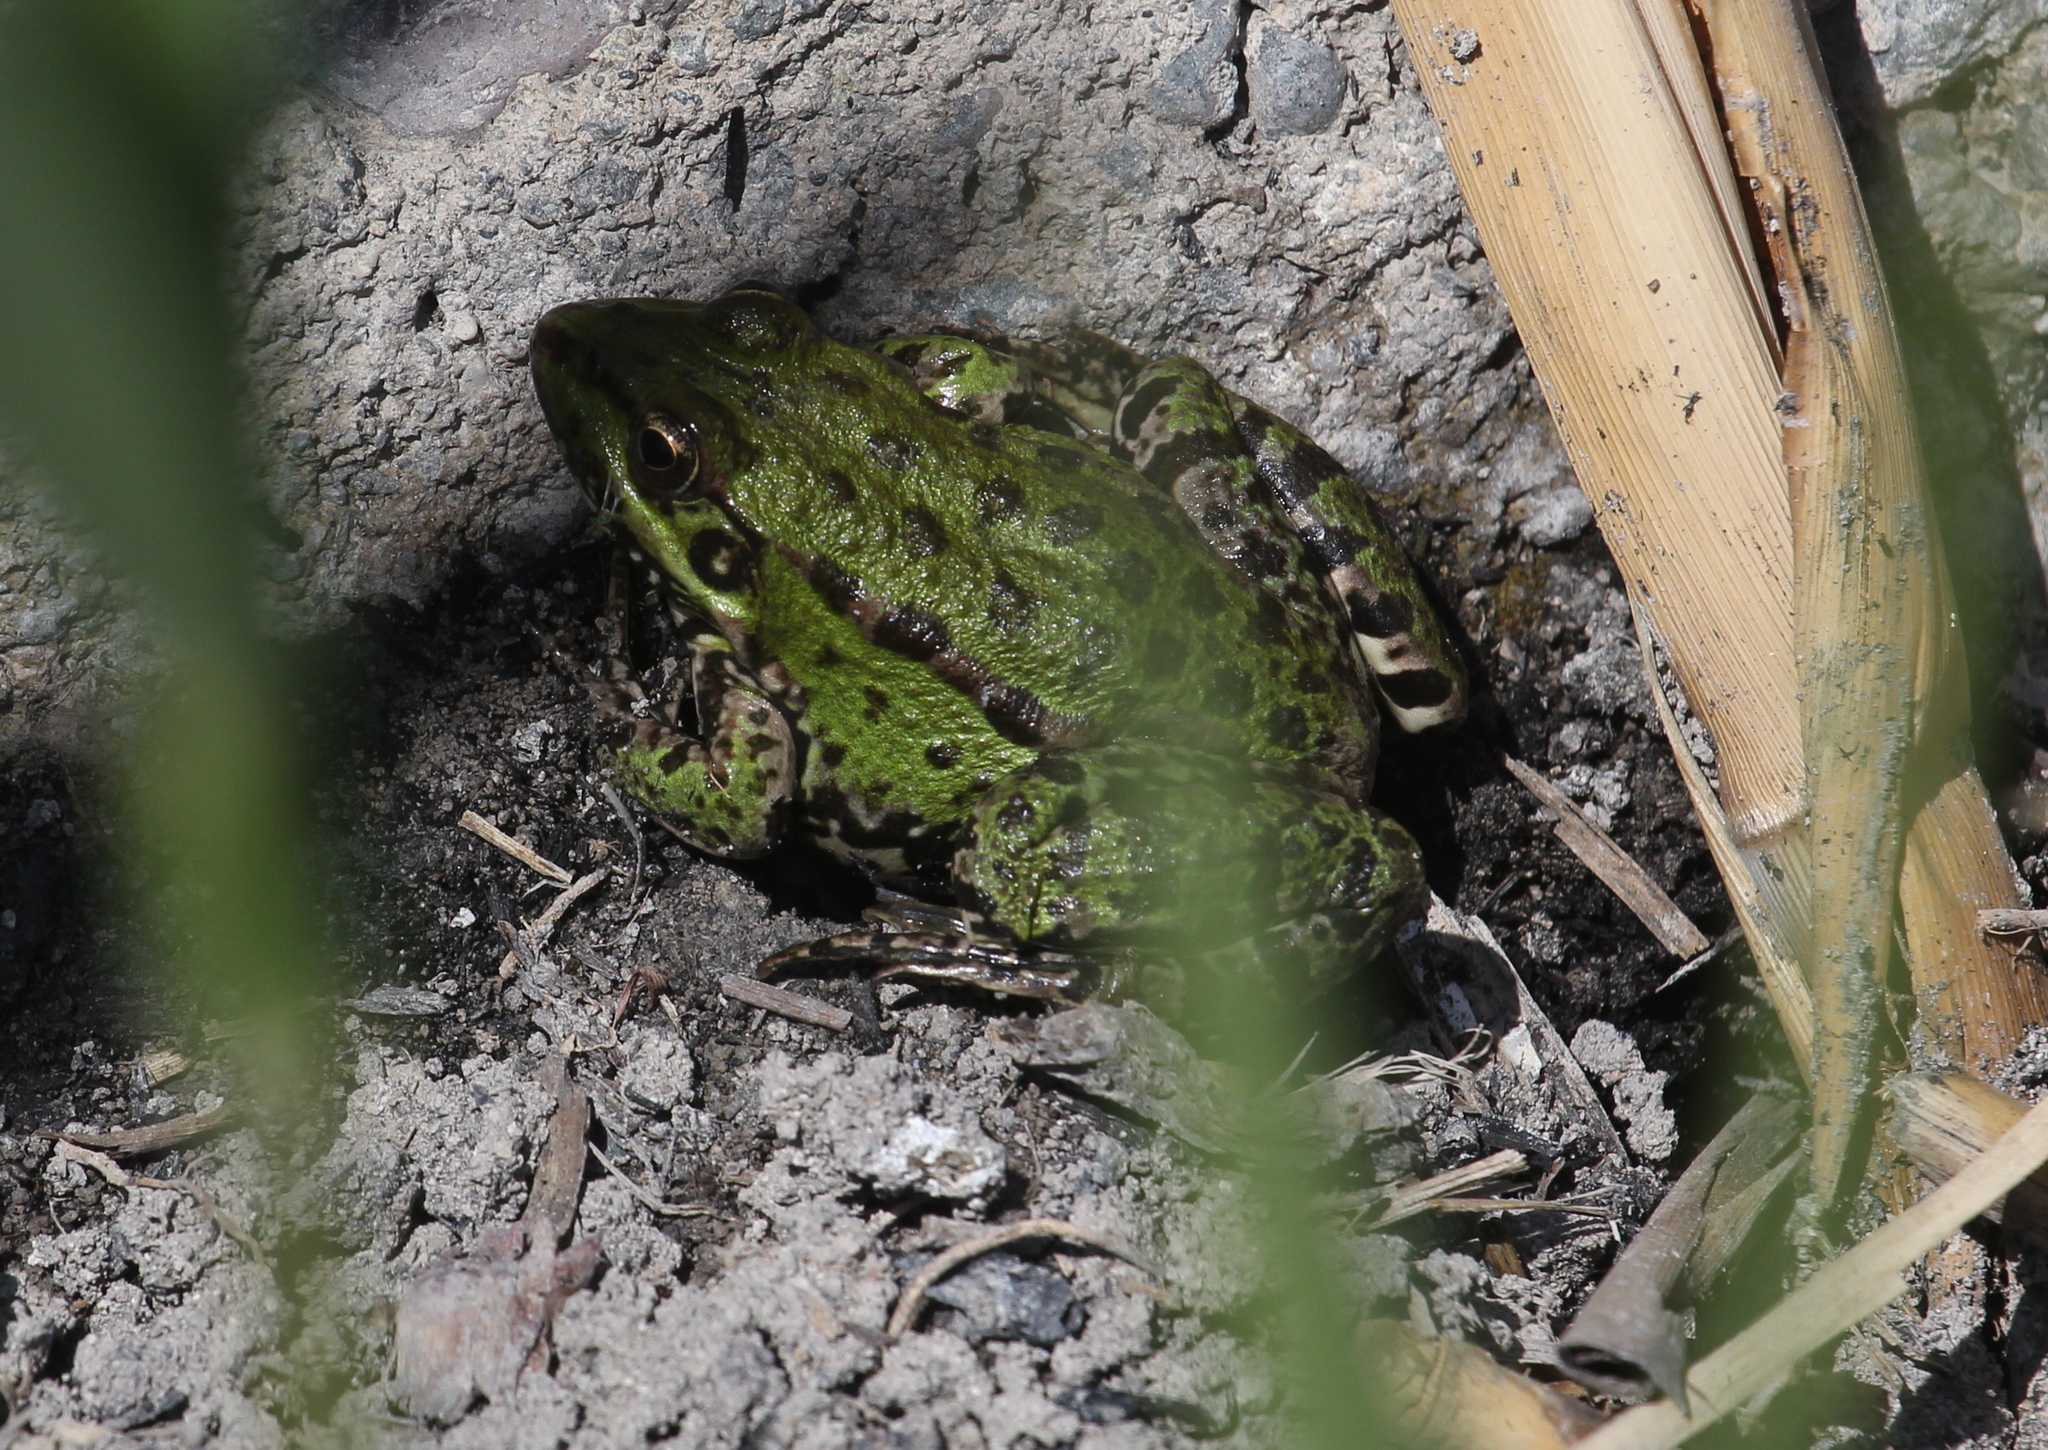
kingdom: Animalia
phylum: Chordata
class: Amphibia
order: Anura
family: Ranidae
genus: Pelophylax
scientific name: Pelophylax ridibundus
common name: Marsh frog
